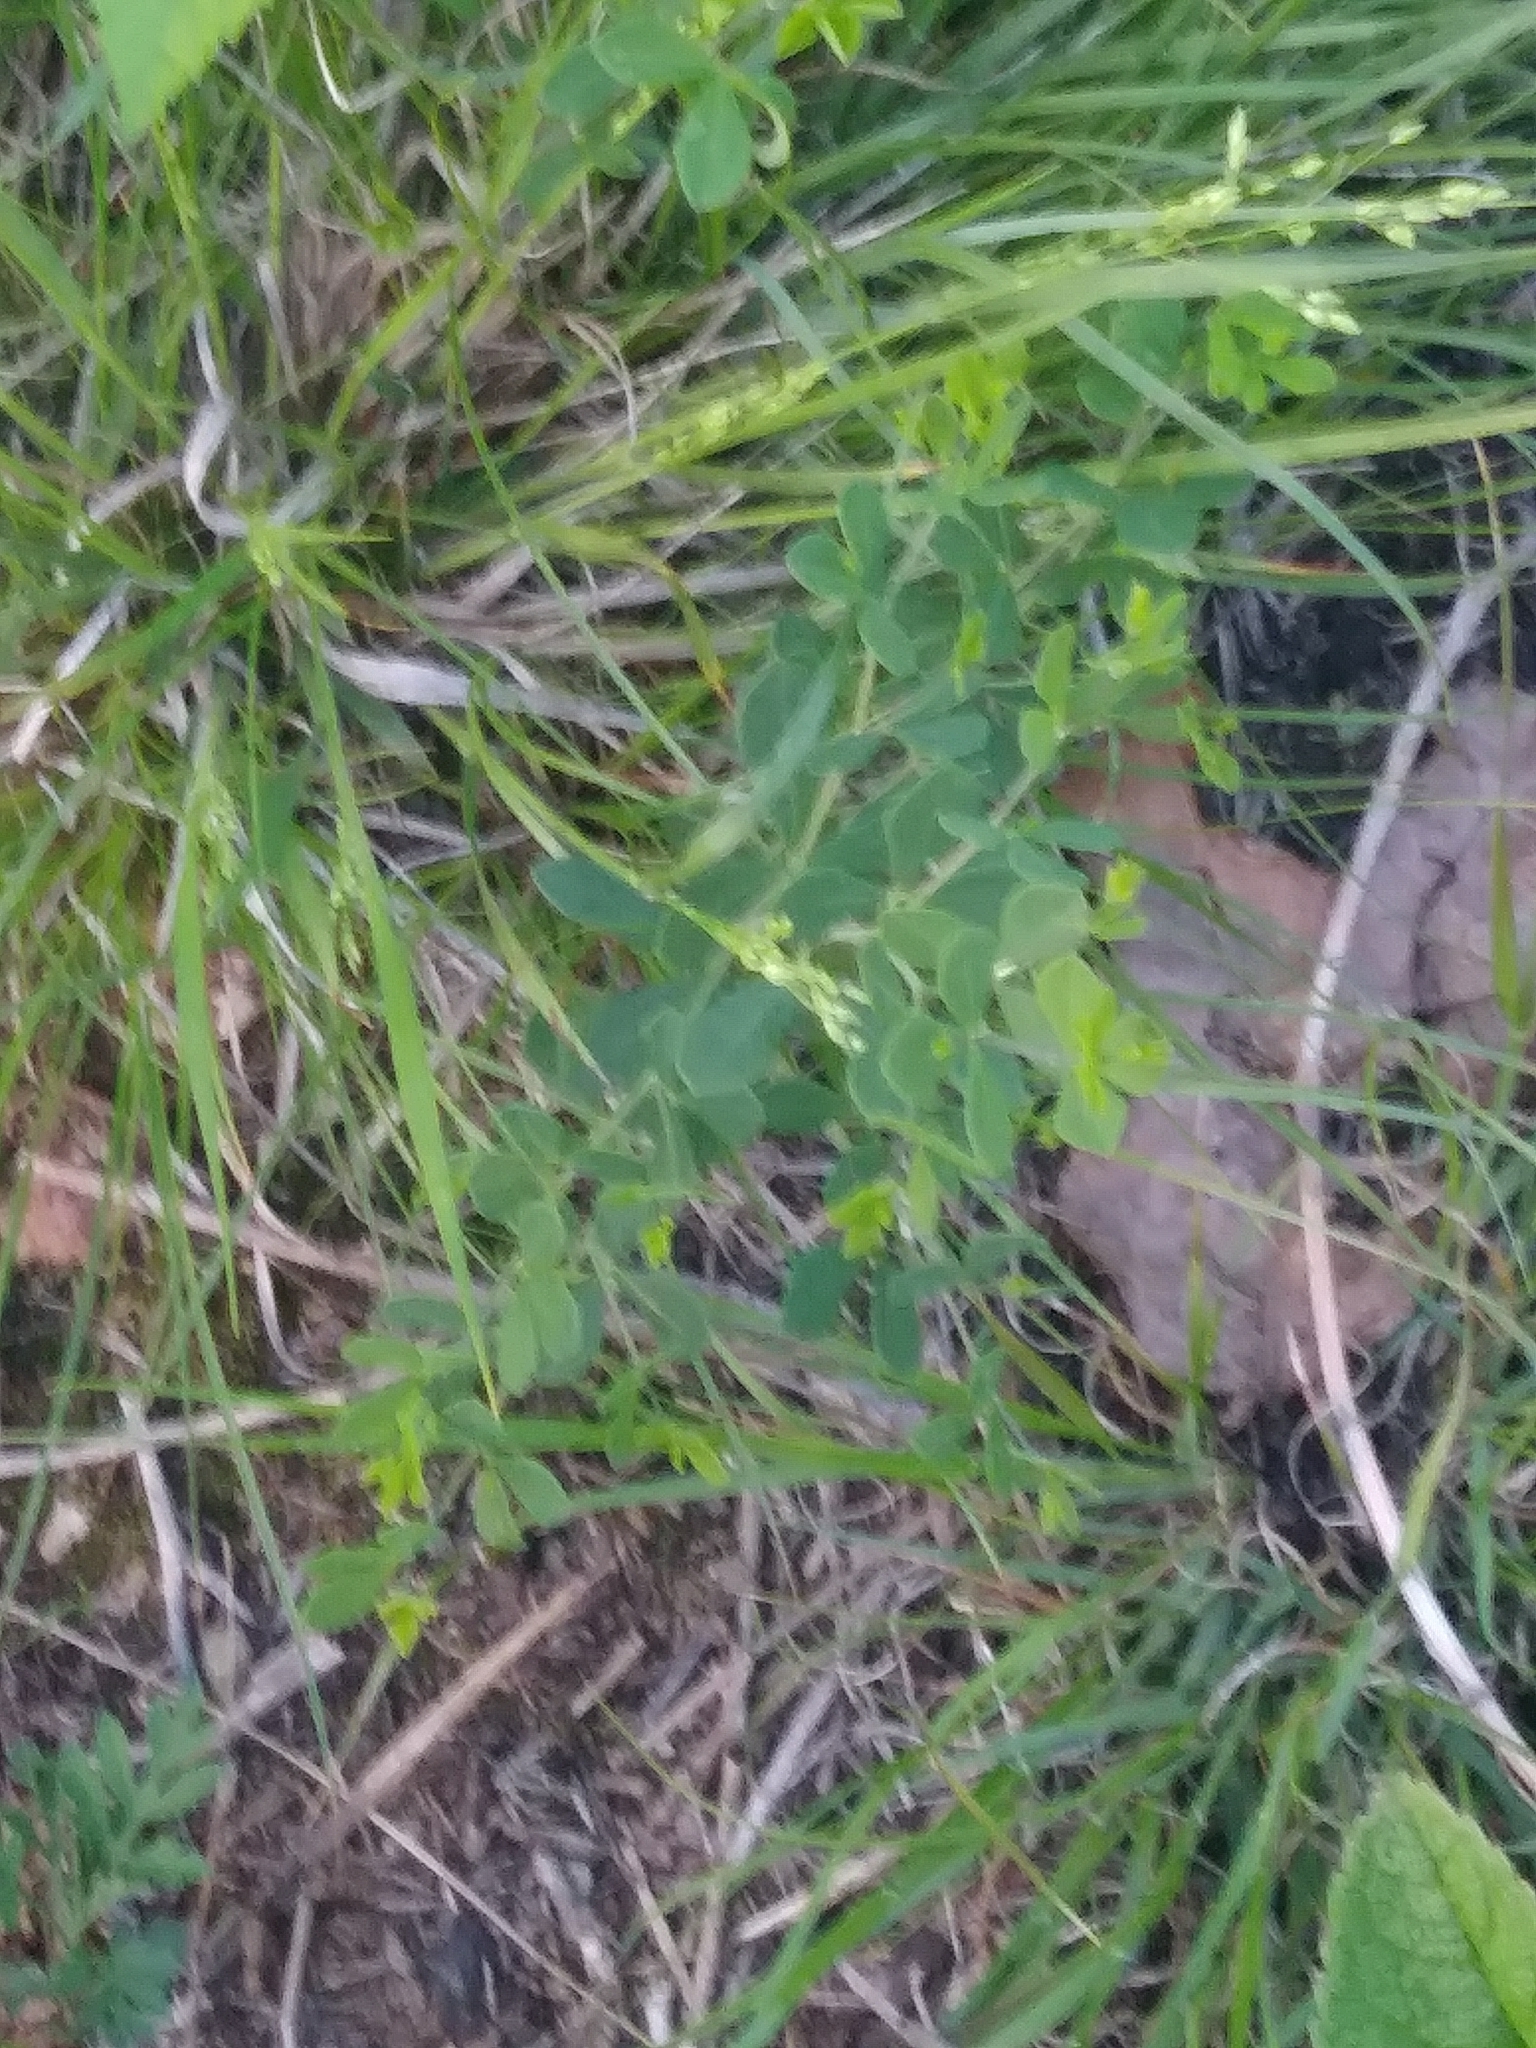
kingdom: Plantae
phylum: Tracheophyta
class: Magnoliopsida
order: Fabales
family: Fabaceae
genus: Baptisia
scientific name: Baptisia tinctoria
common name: Wild indigo
